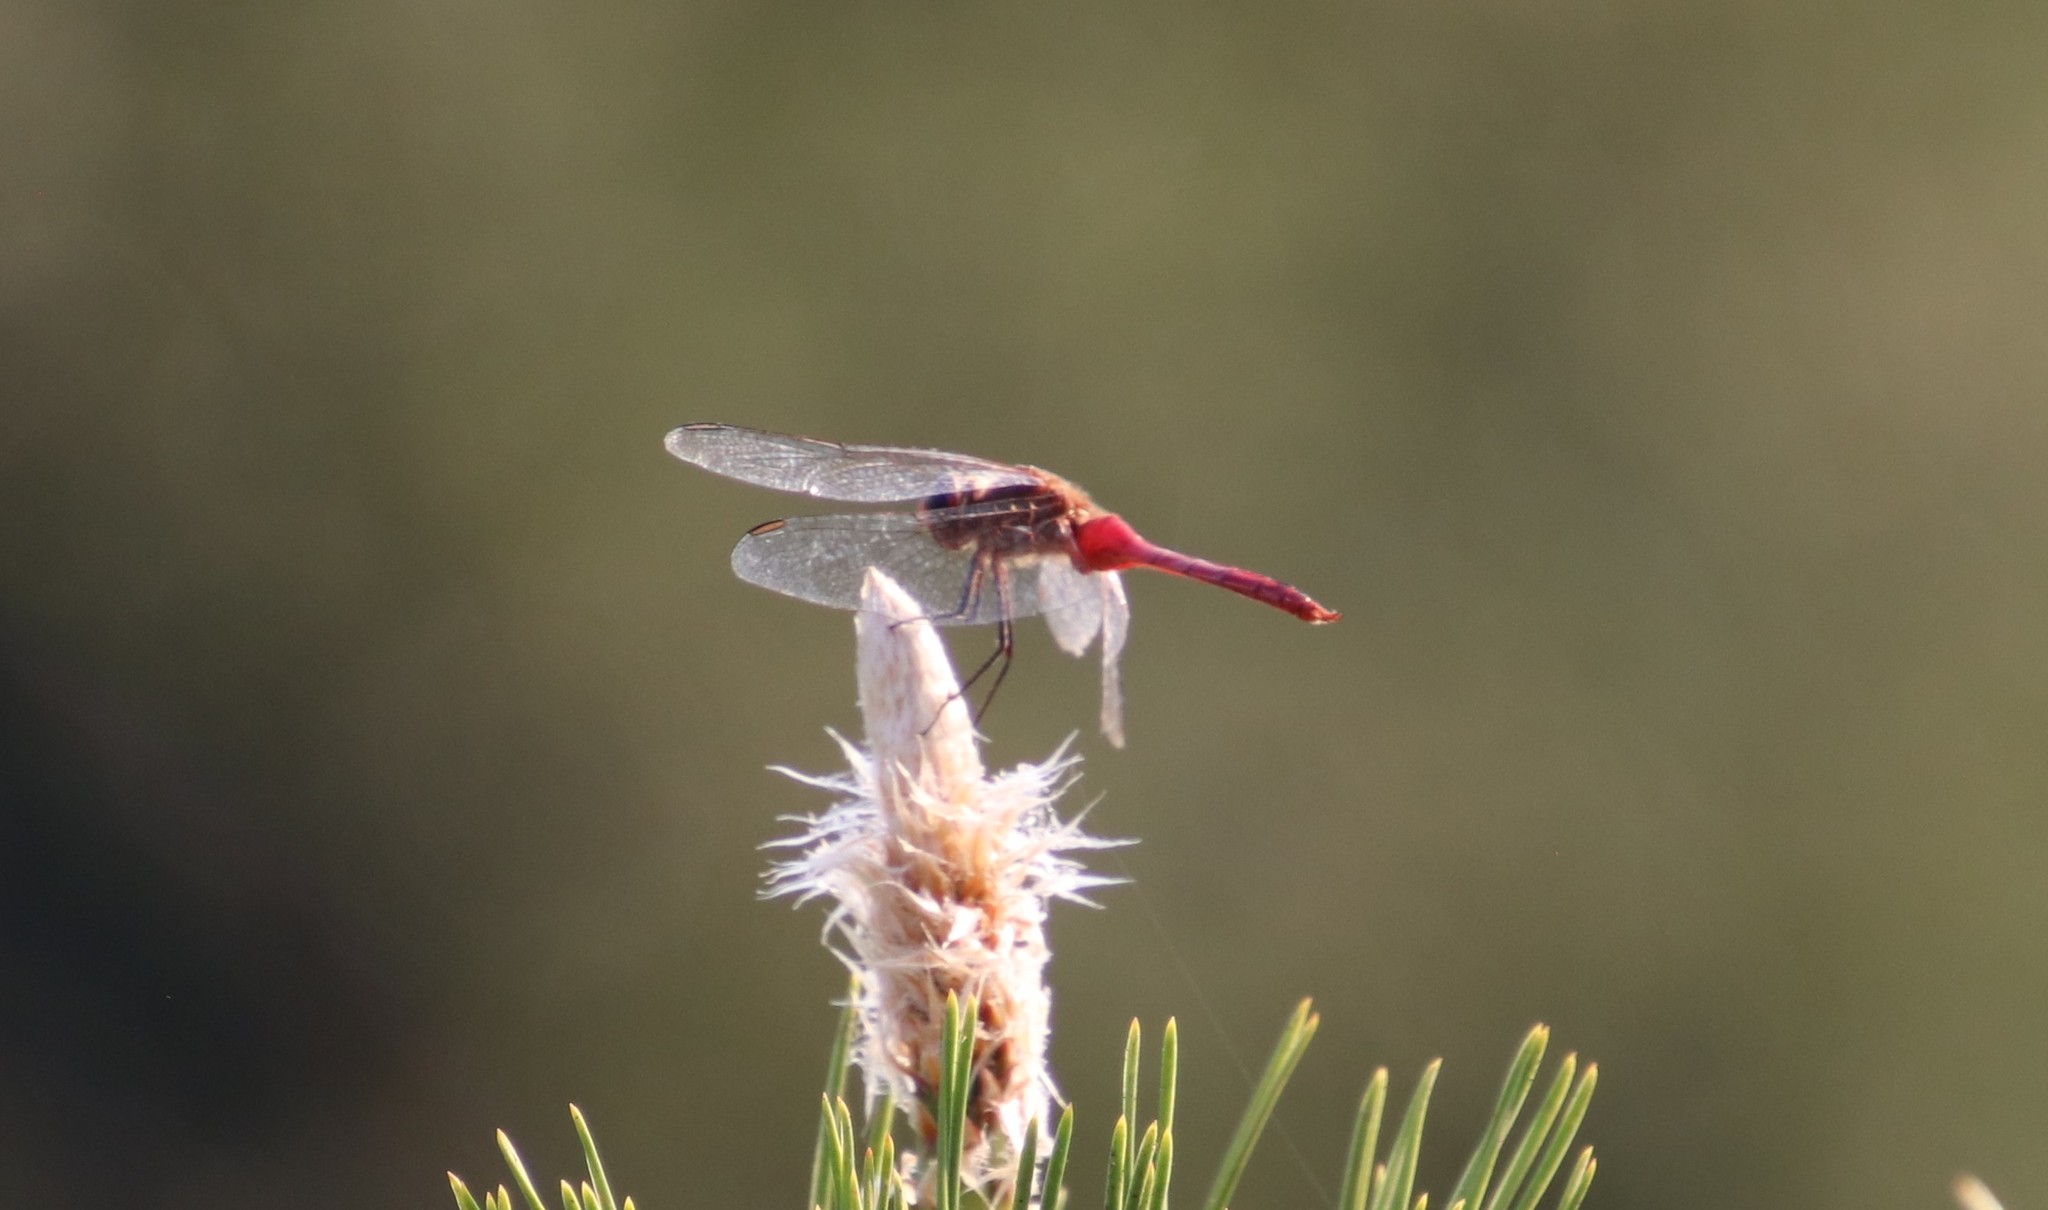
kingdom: Animalia
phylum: Arthropoda
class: Insecta
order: Odonata
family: Libellulidae
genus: Brachymesia
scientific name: Brachymesia furcata
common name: Red-taled pennant
